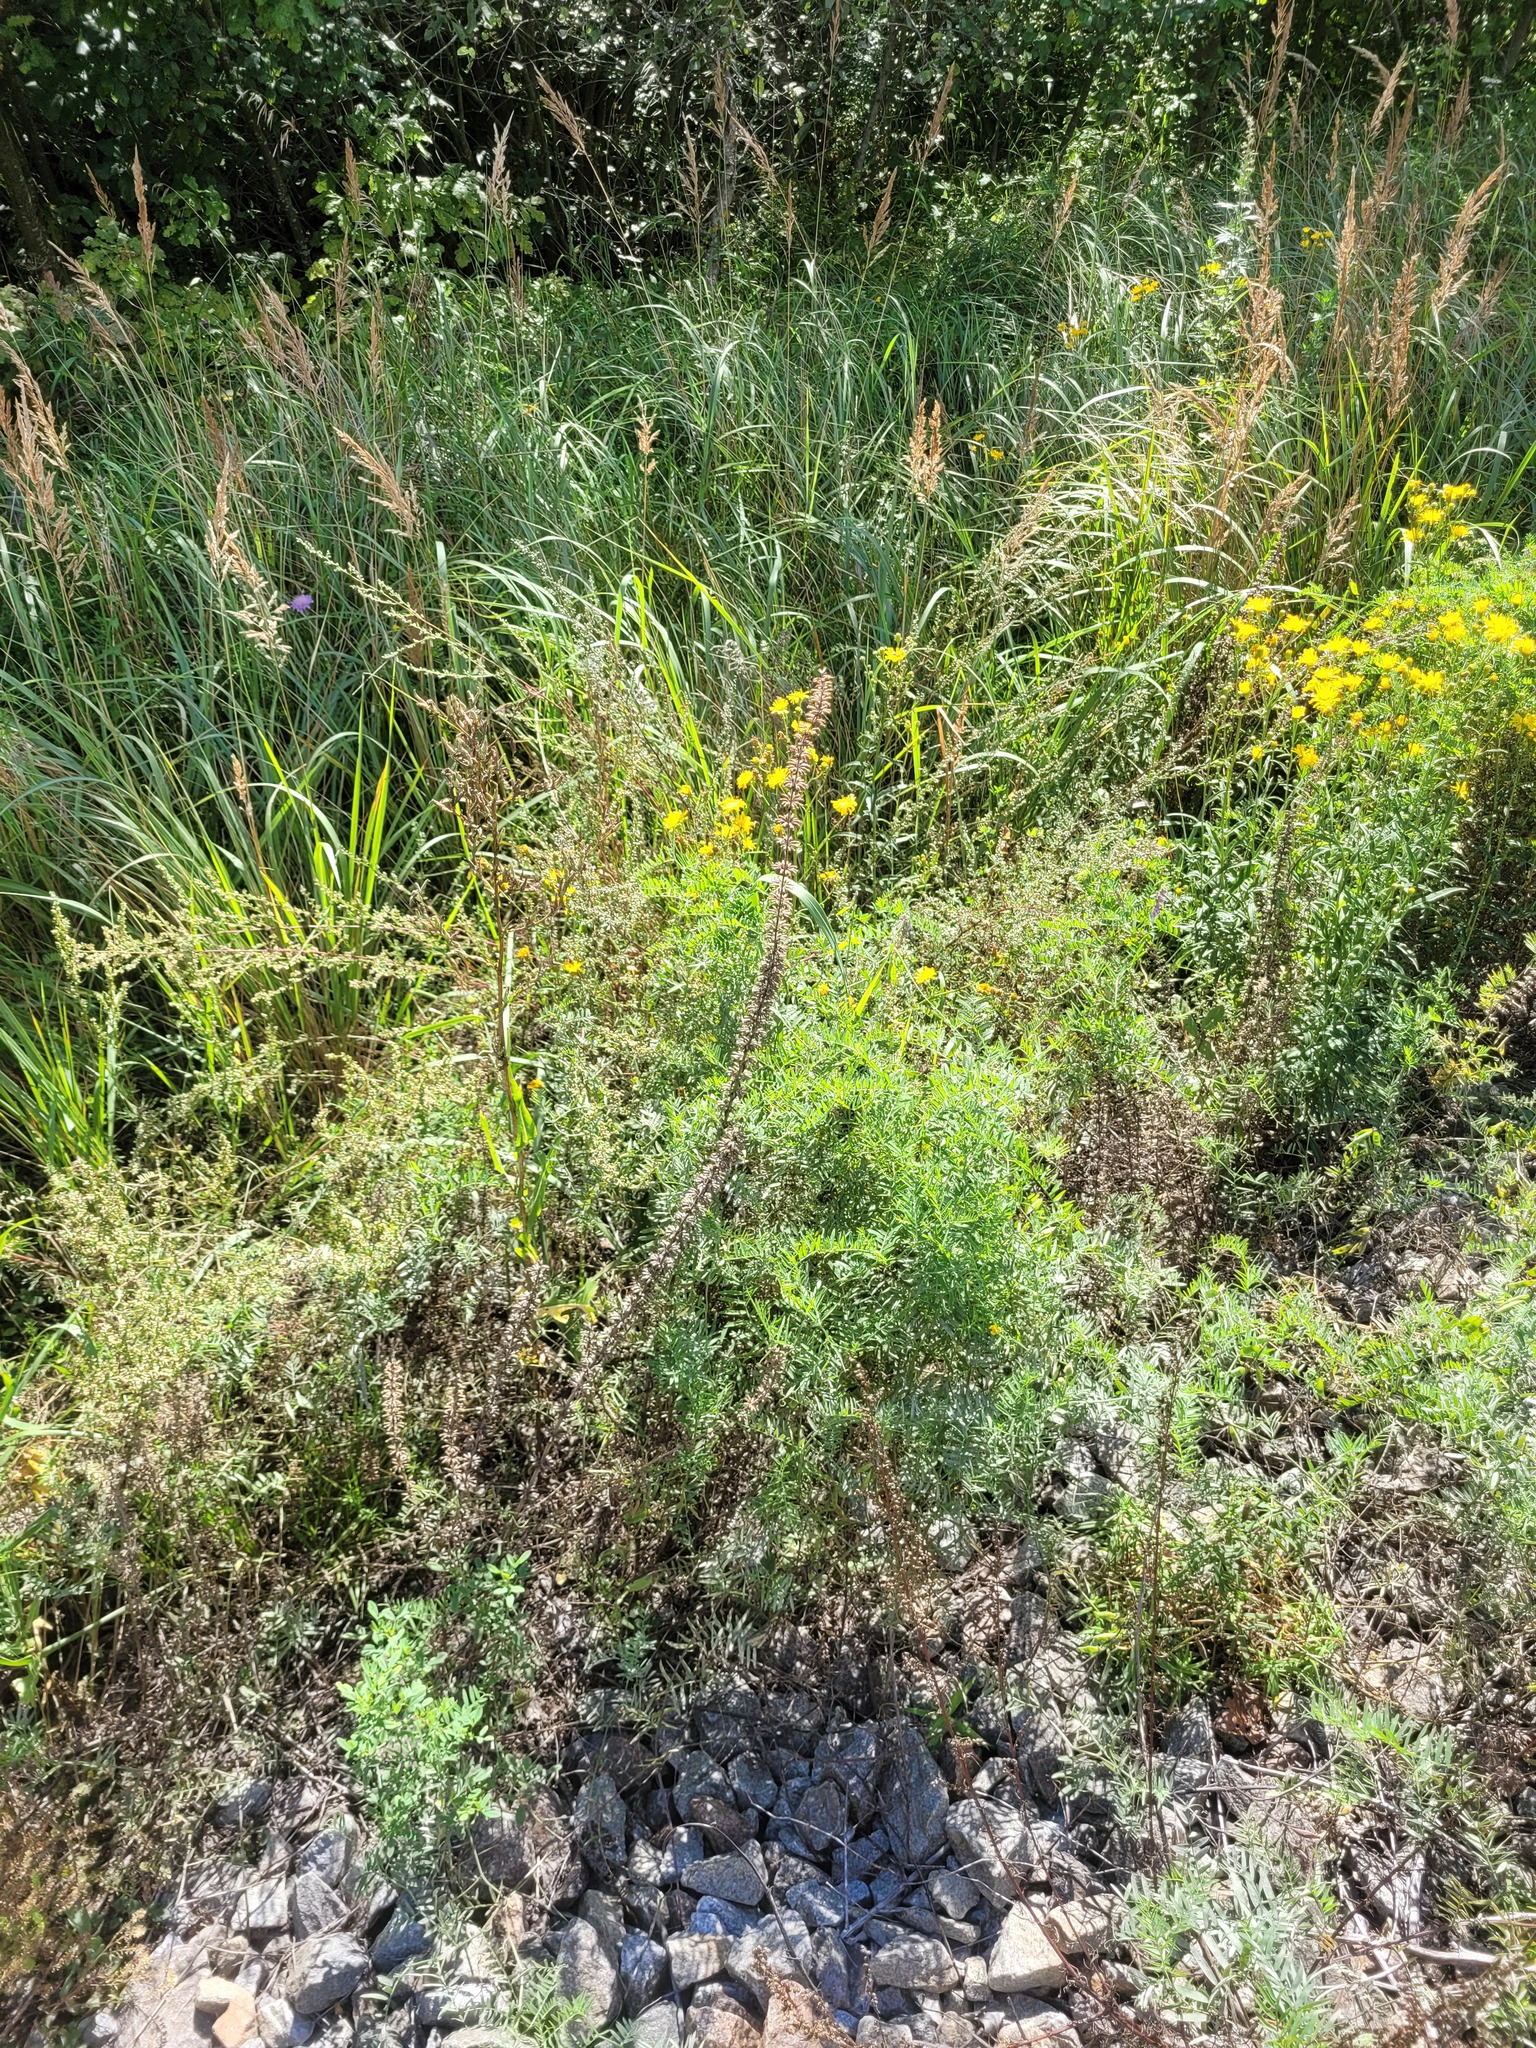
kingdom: Plantae
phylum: Tracheophyta
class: Magnoliopsida
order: Lamiales
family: Lamiaceae
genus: Dracocephalum
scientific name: Dracocephalum thymiflorum
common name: Thymeleaf dragonhead
